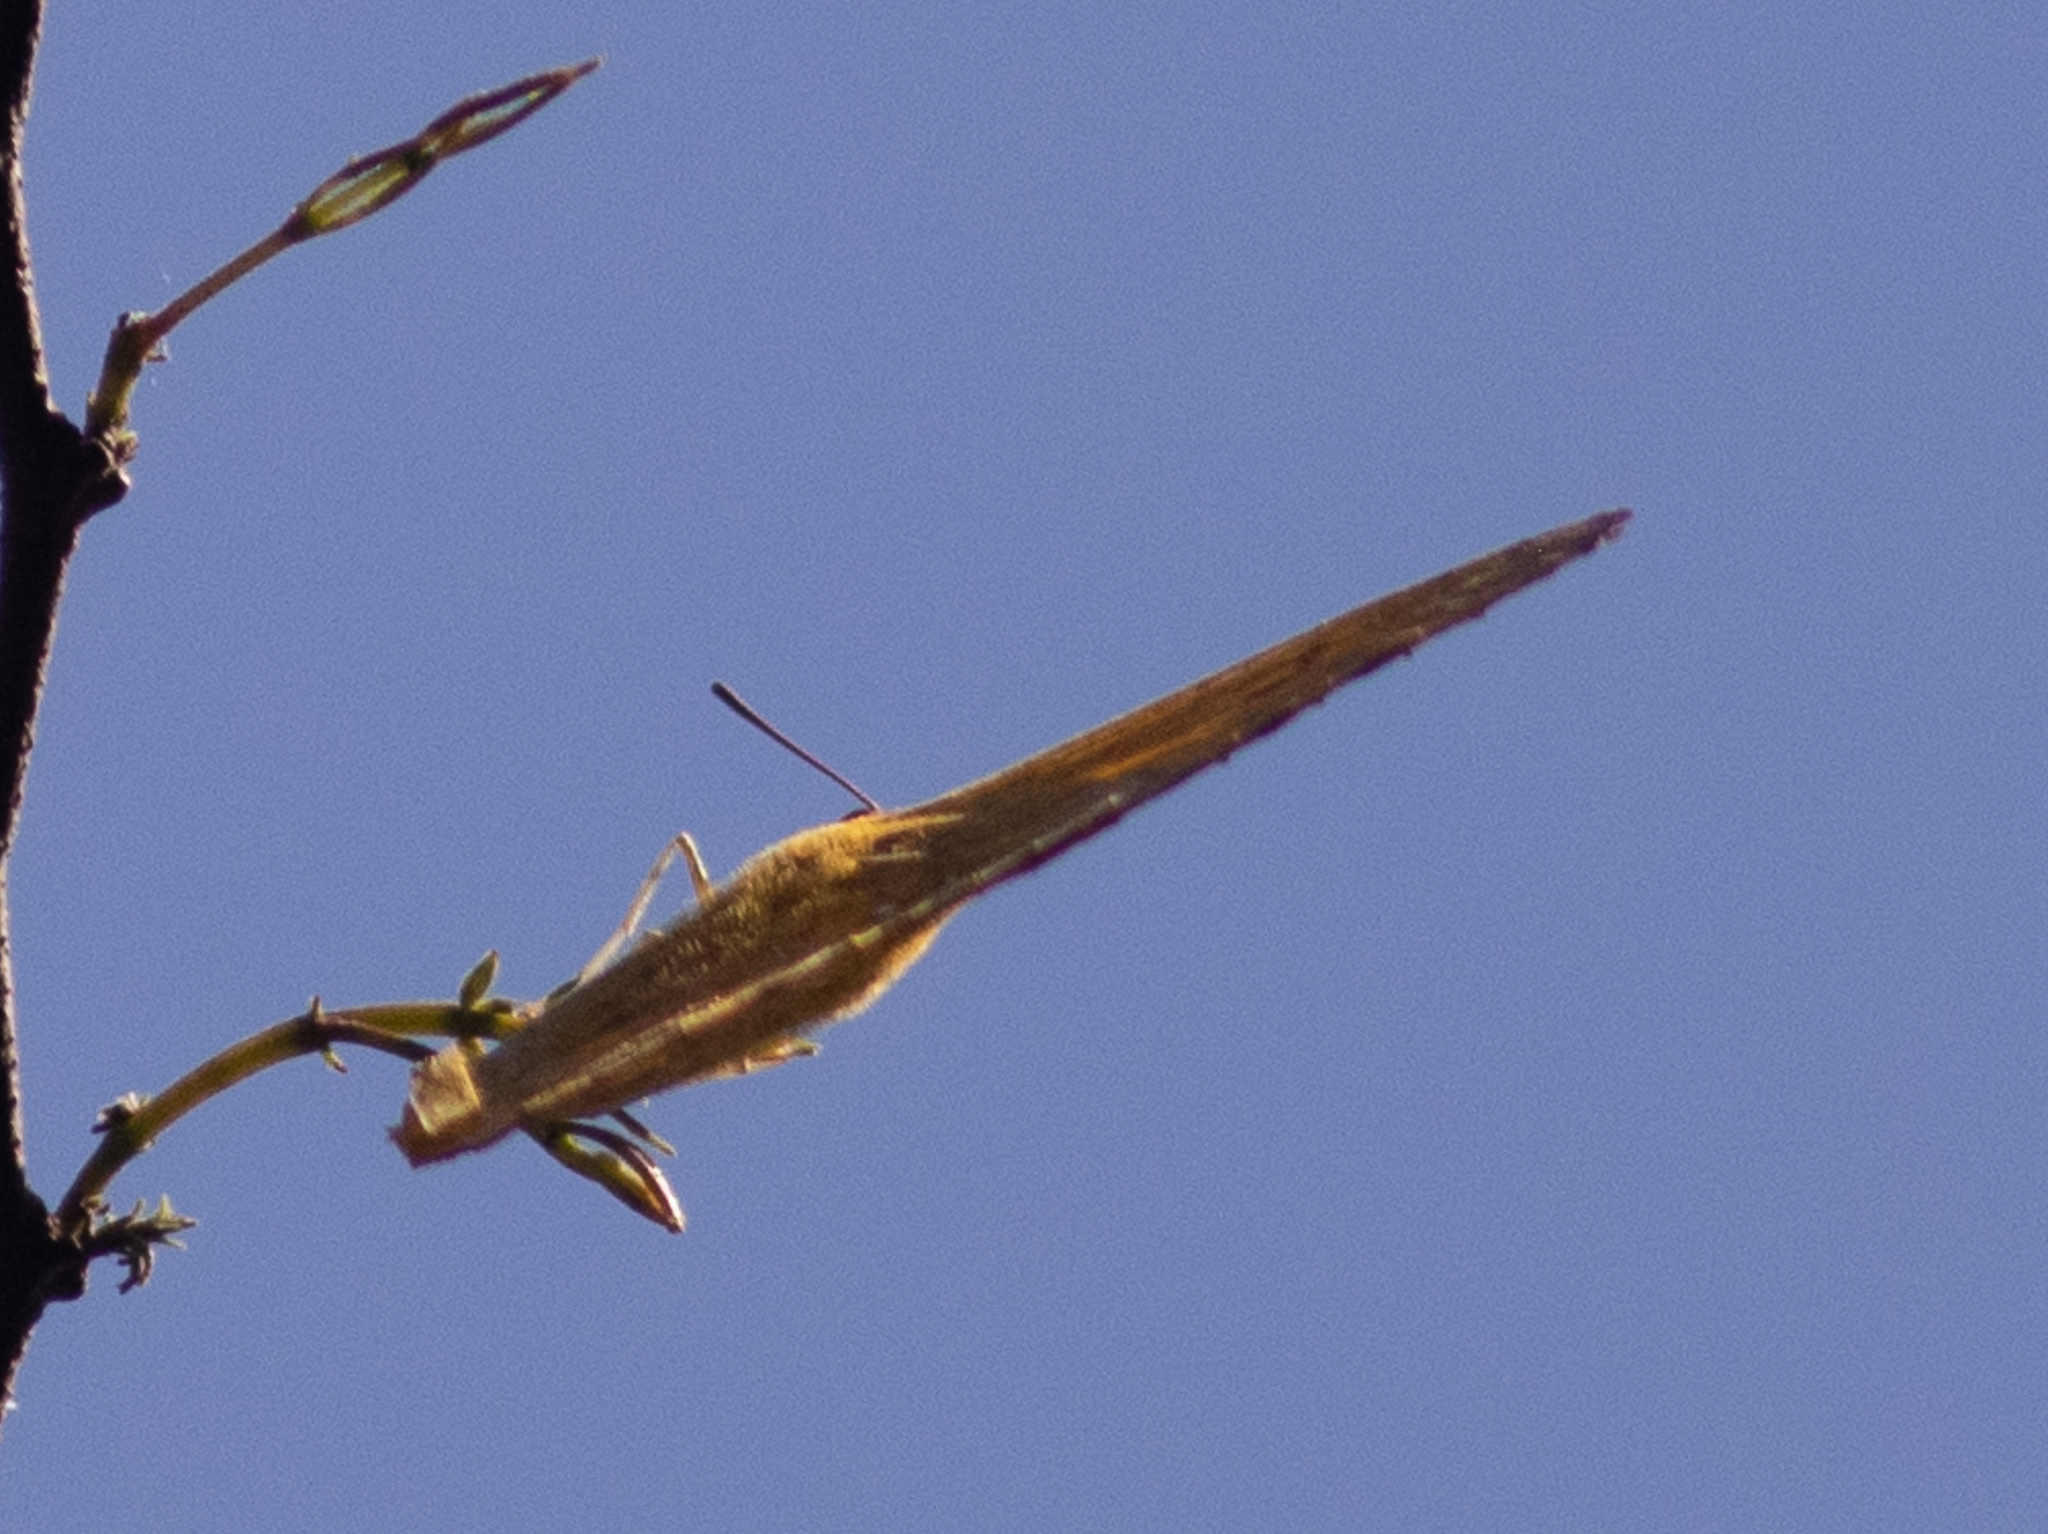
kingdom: Animalia
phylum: Arthropoda
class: Insecta
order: Lepidoptera
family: Pieridae
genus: Phoebis
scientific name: Phoebis agarithe
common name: Large orange sulphur
